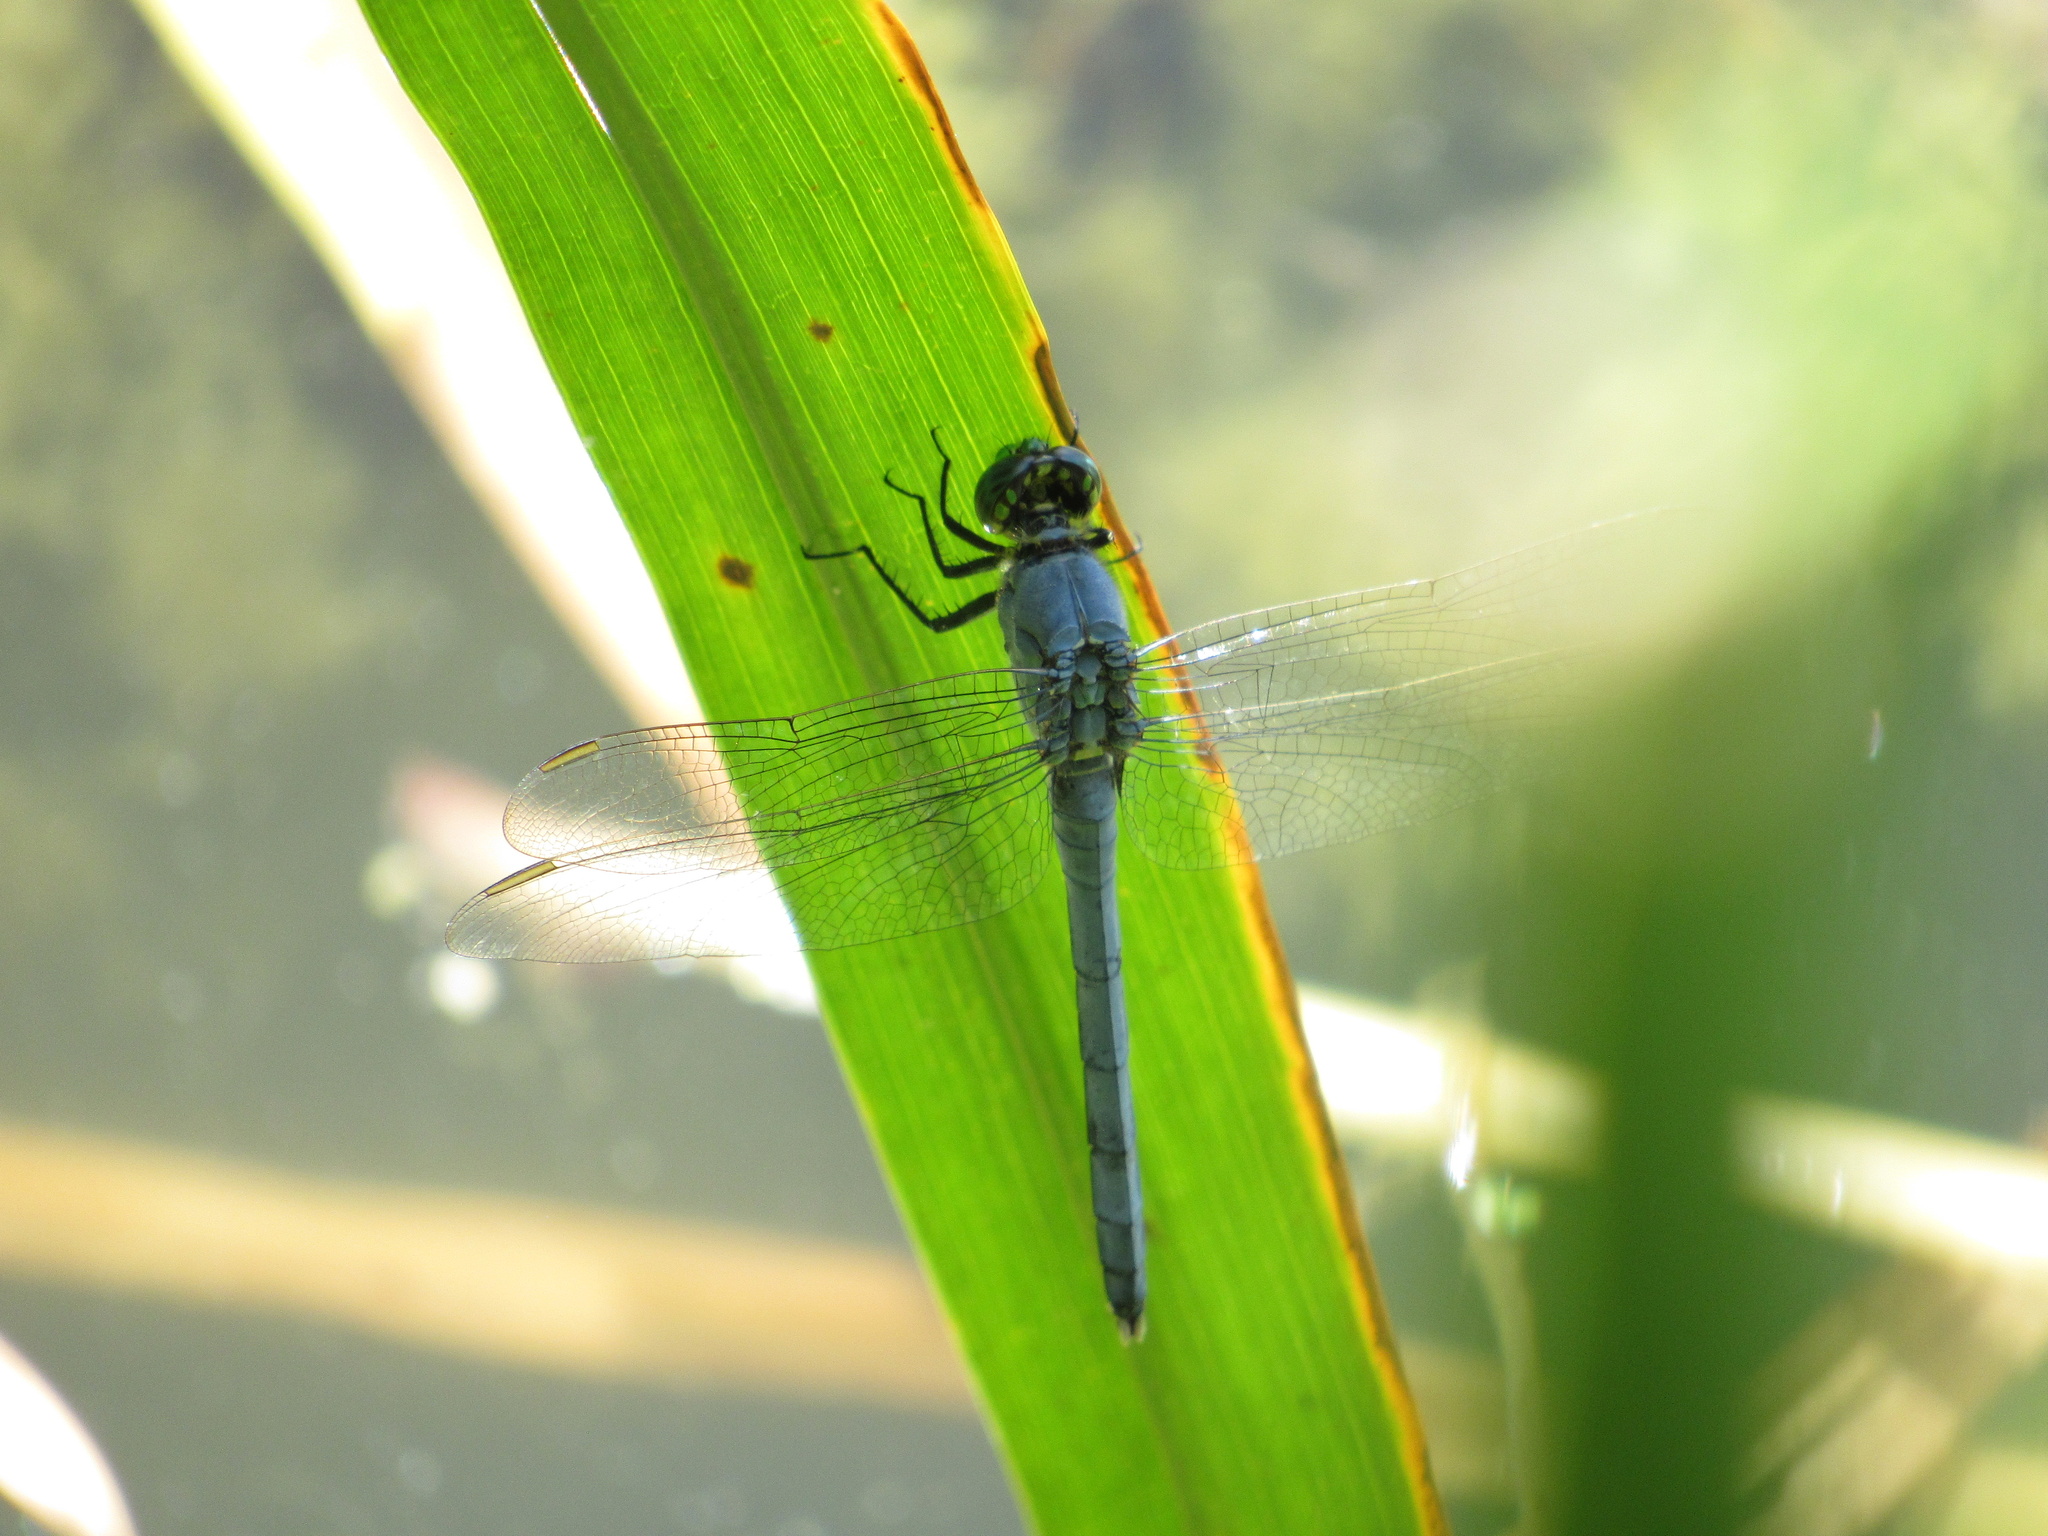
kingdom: Animalia
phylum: Arthropoda
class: Insecta
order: Odonata
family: Libellulidae
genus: Erythemis
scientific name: Erythemis simplicicollis
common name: Eastern pondhawk
